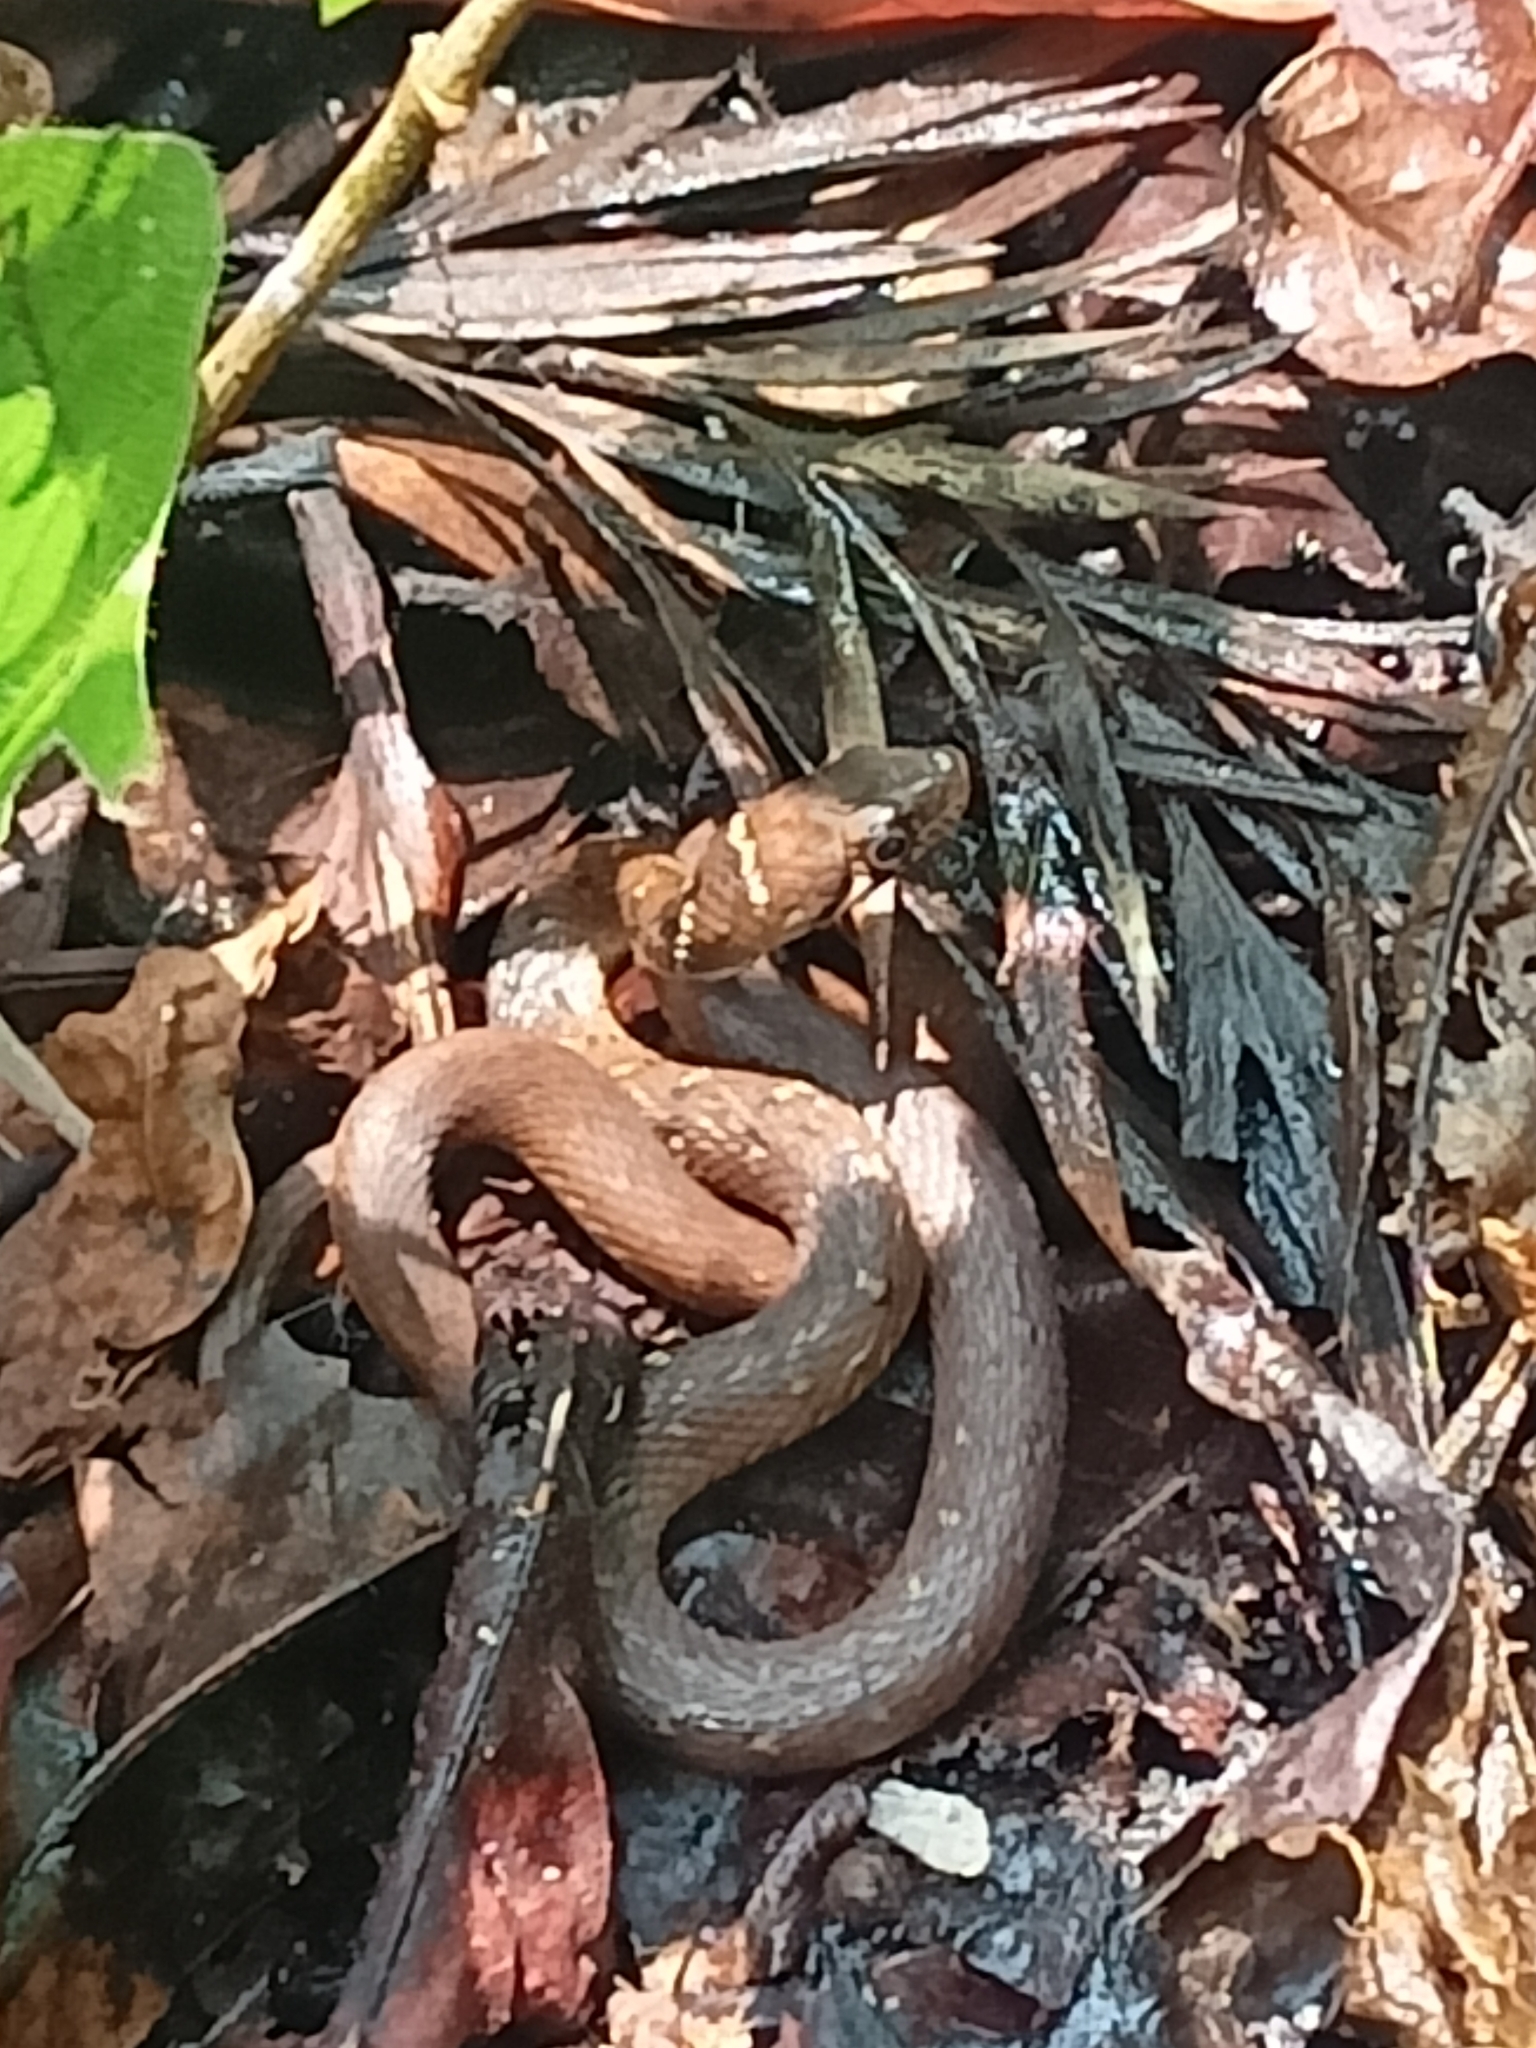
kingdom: Animalia
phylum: Chordata
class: Squamata
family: Colubridae
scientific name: Colubridae
